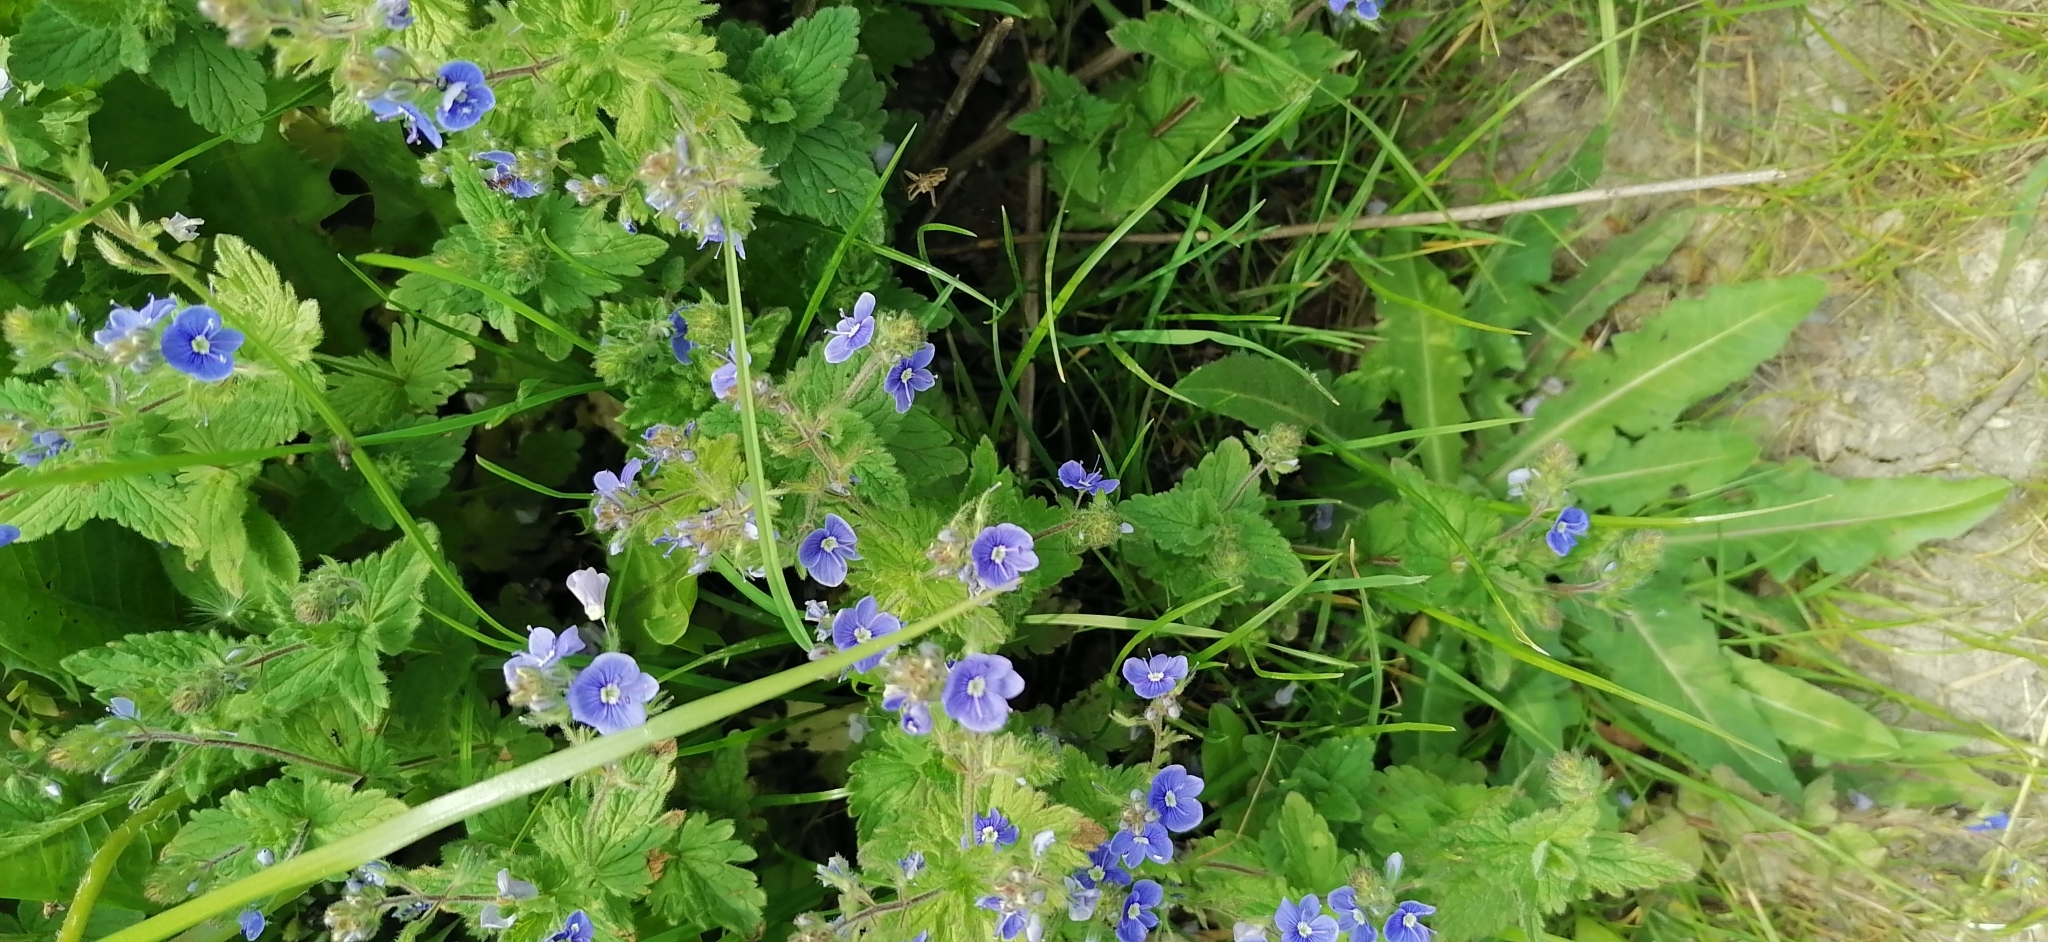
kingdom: Plantae
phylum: Tracheophyta
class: Magnoliopsida
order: Lamiales
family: Plantaginaceae
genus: Veronica
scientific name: Veronica chamaedrys
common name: Germander speedwell
